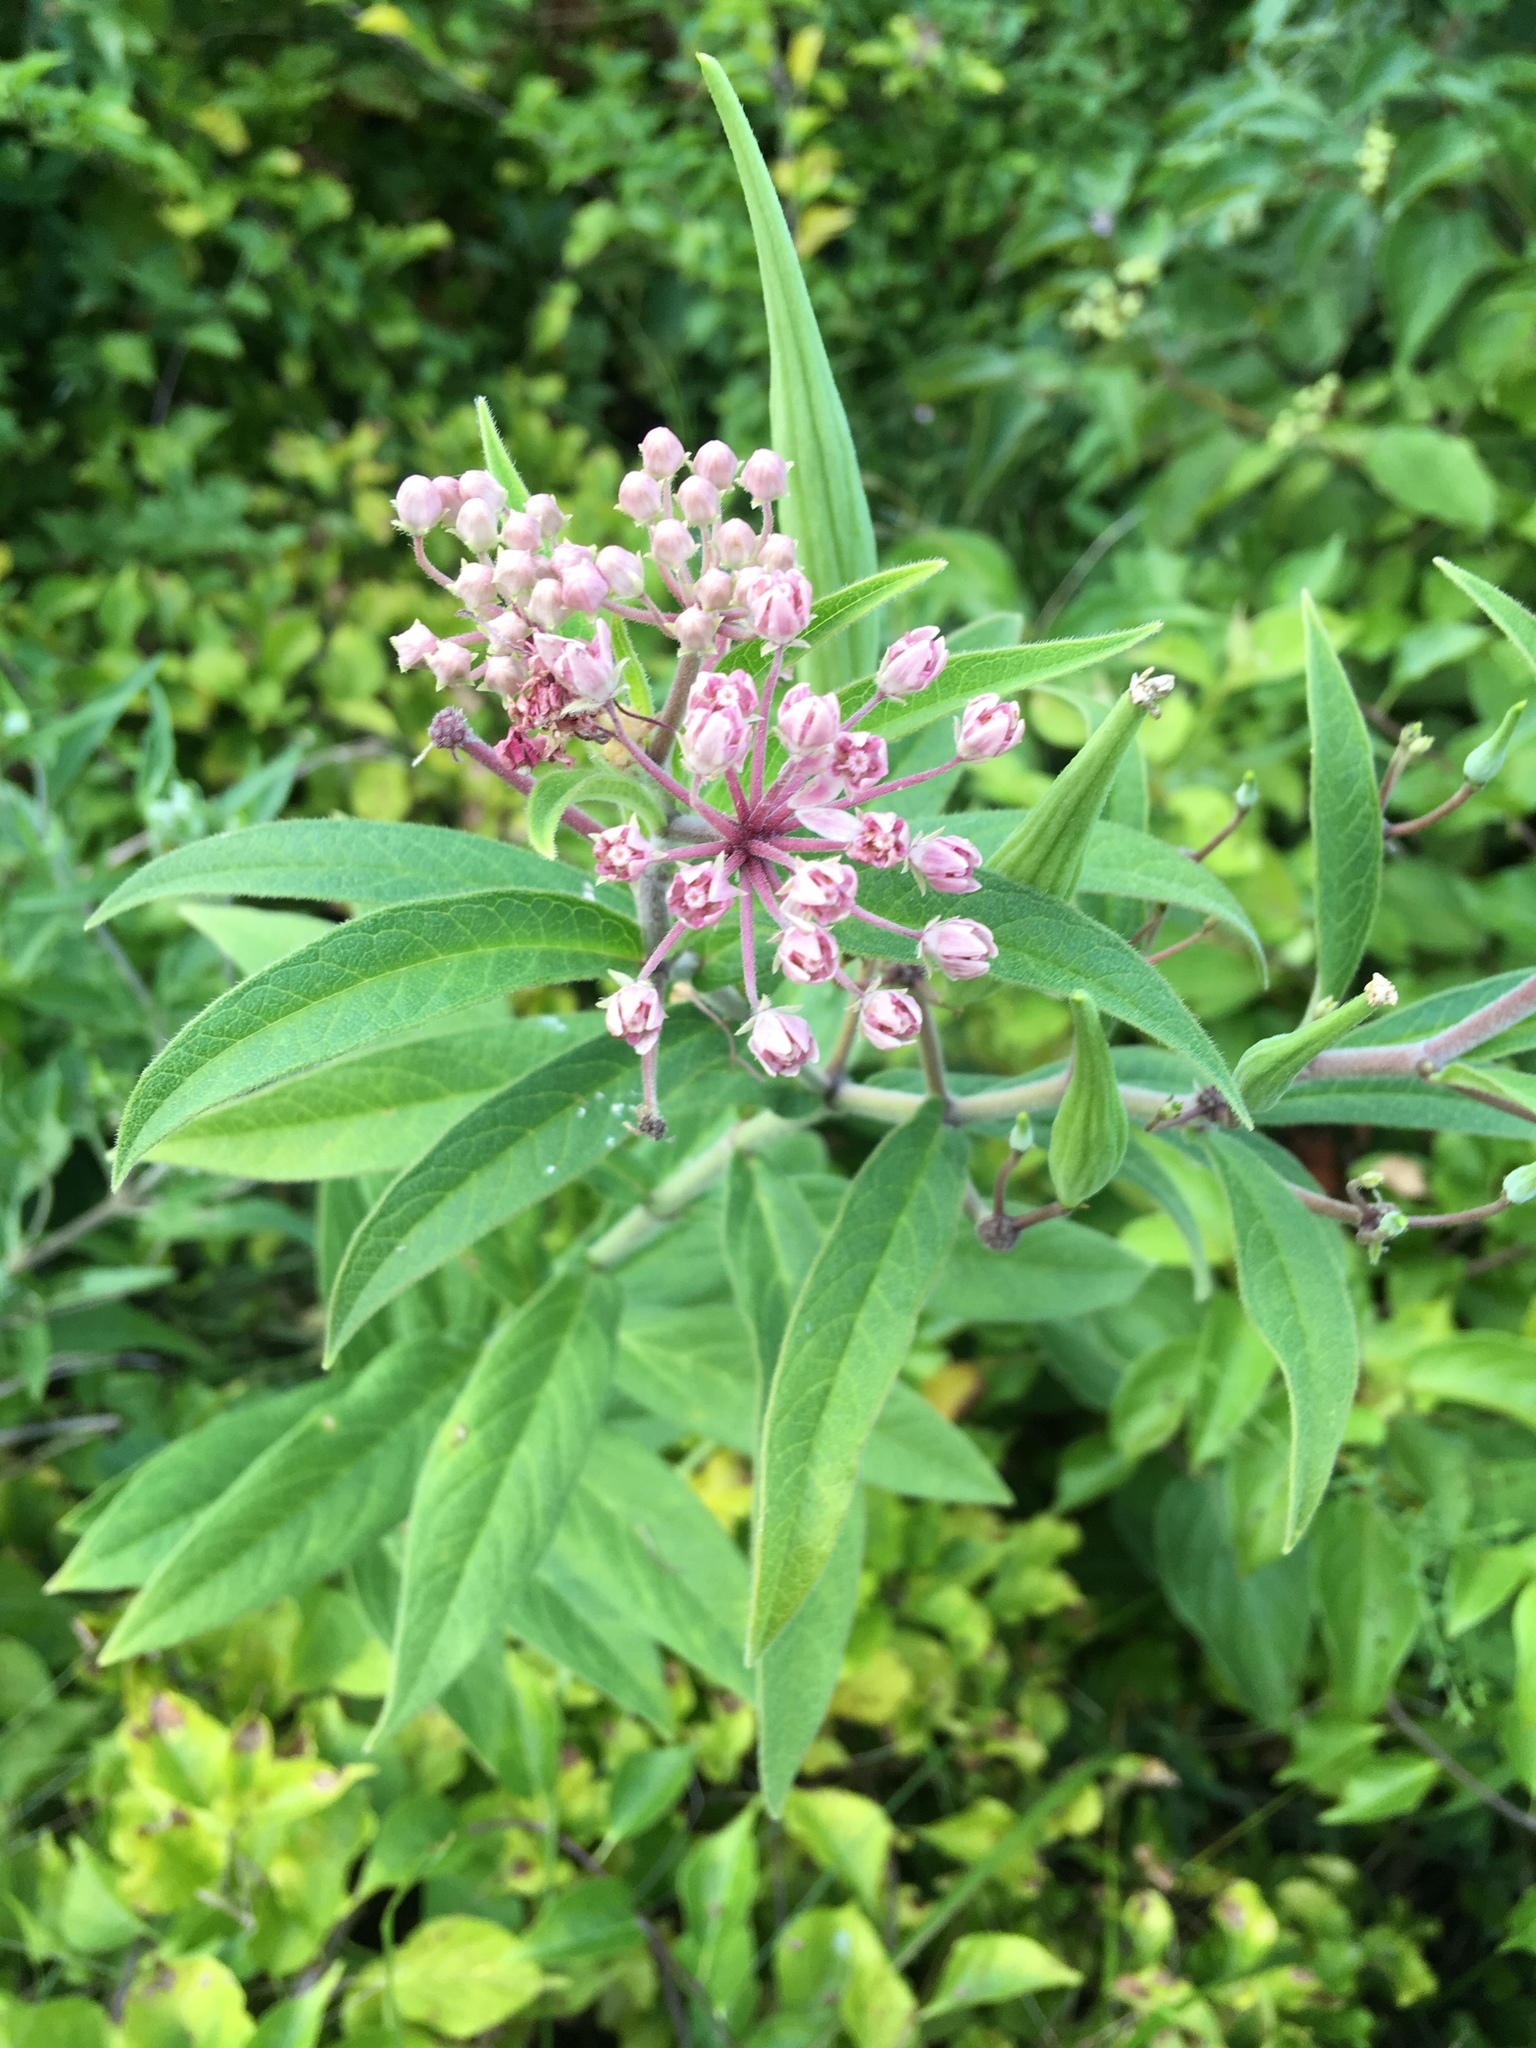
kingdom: Plantae
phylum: Tracheophyta
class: Magnoliopsida
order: Gentianales
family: Apocynaceae
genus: Asclepias
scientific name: Asclepias incarnata
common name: Swamp milkweed
